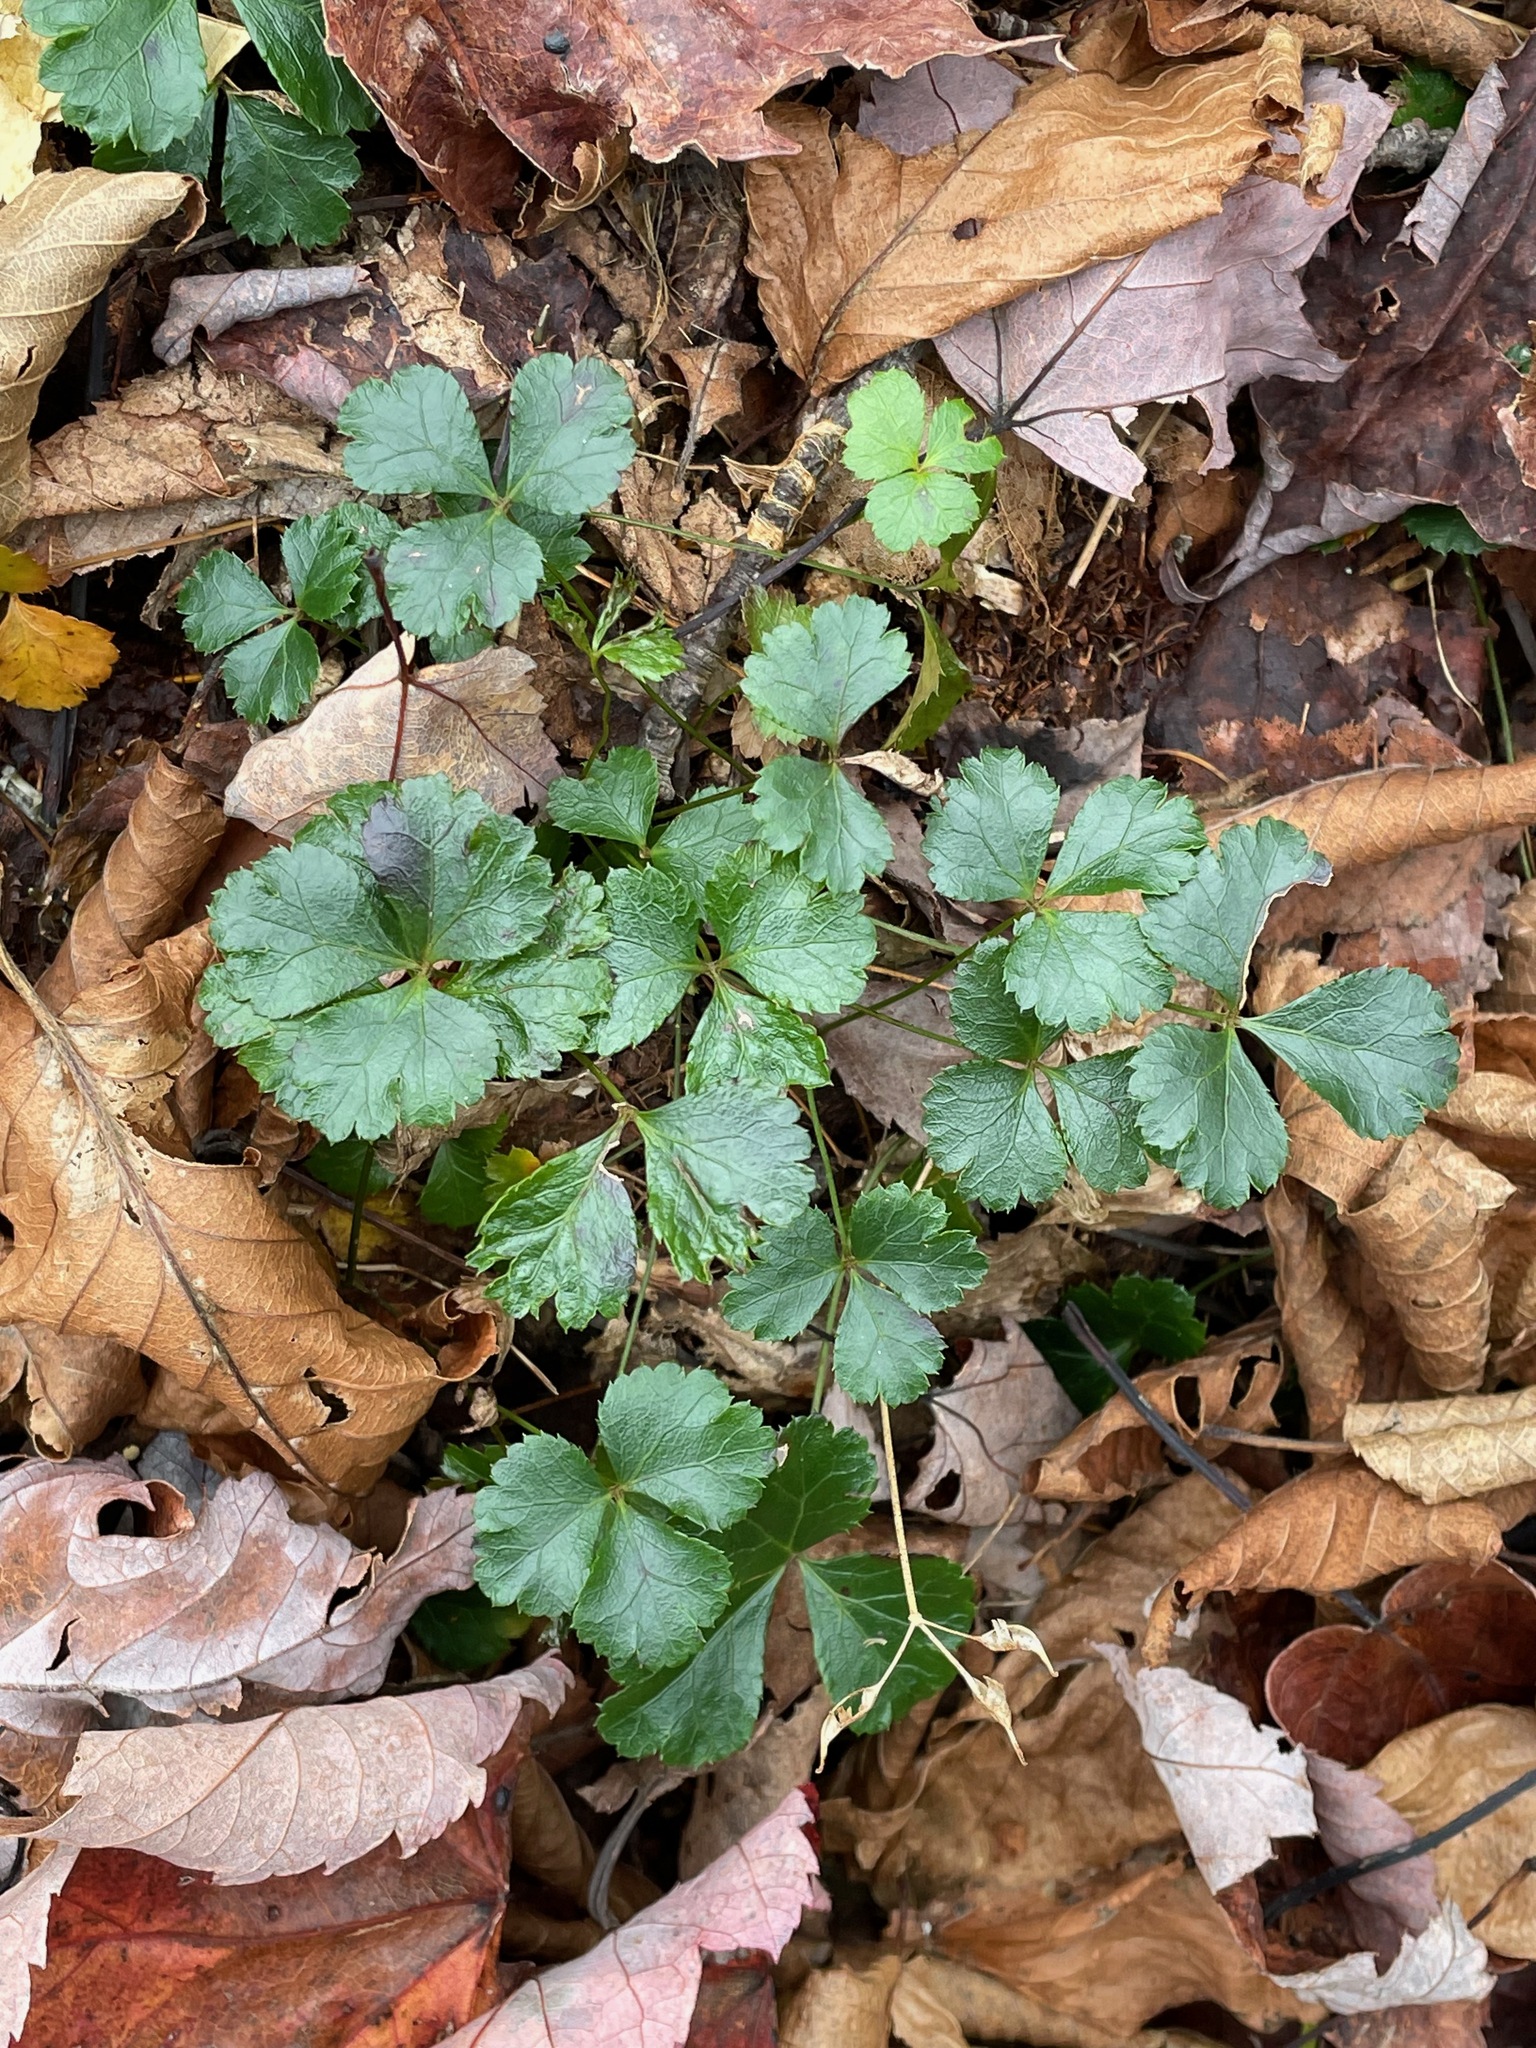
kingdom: Plantae
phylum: Tracheophyta
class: Magnoliopsida
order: Ranunculales
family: Ranunculaceae
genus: Coptis
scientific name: Coptis trifolia
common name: Canker-root
